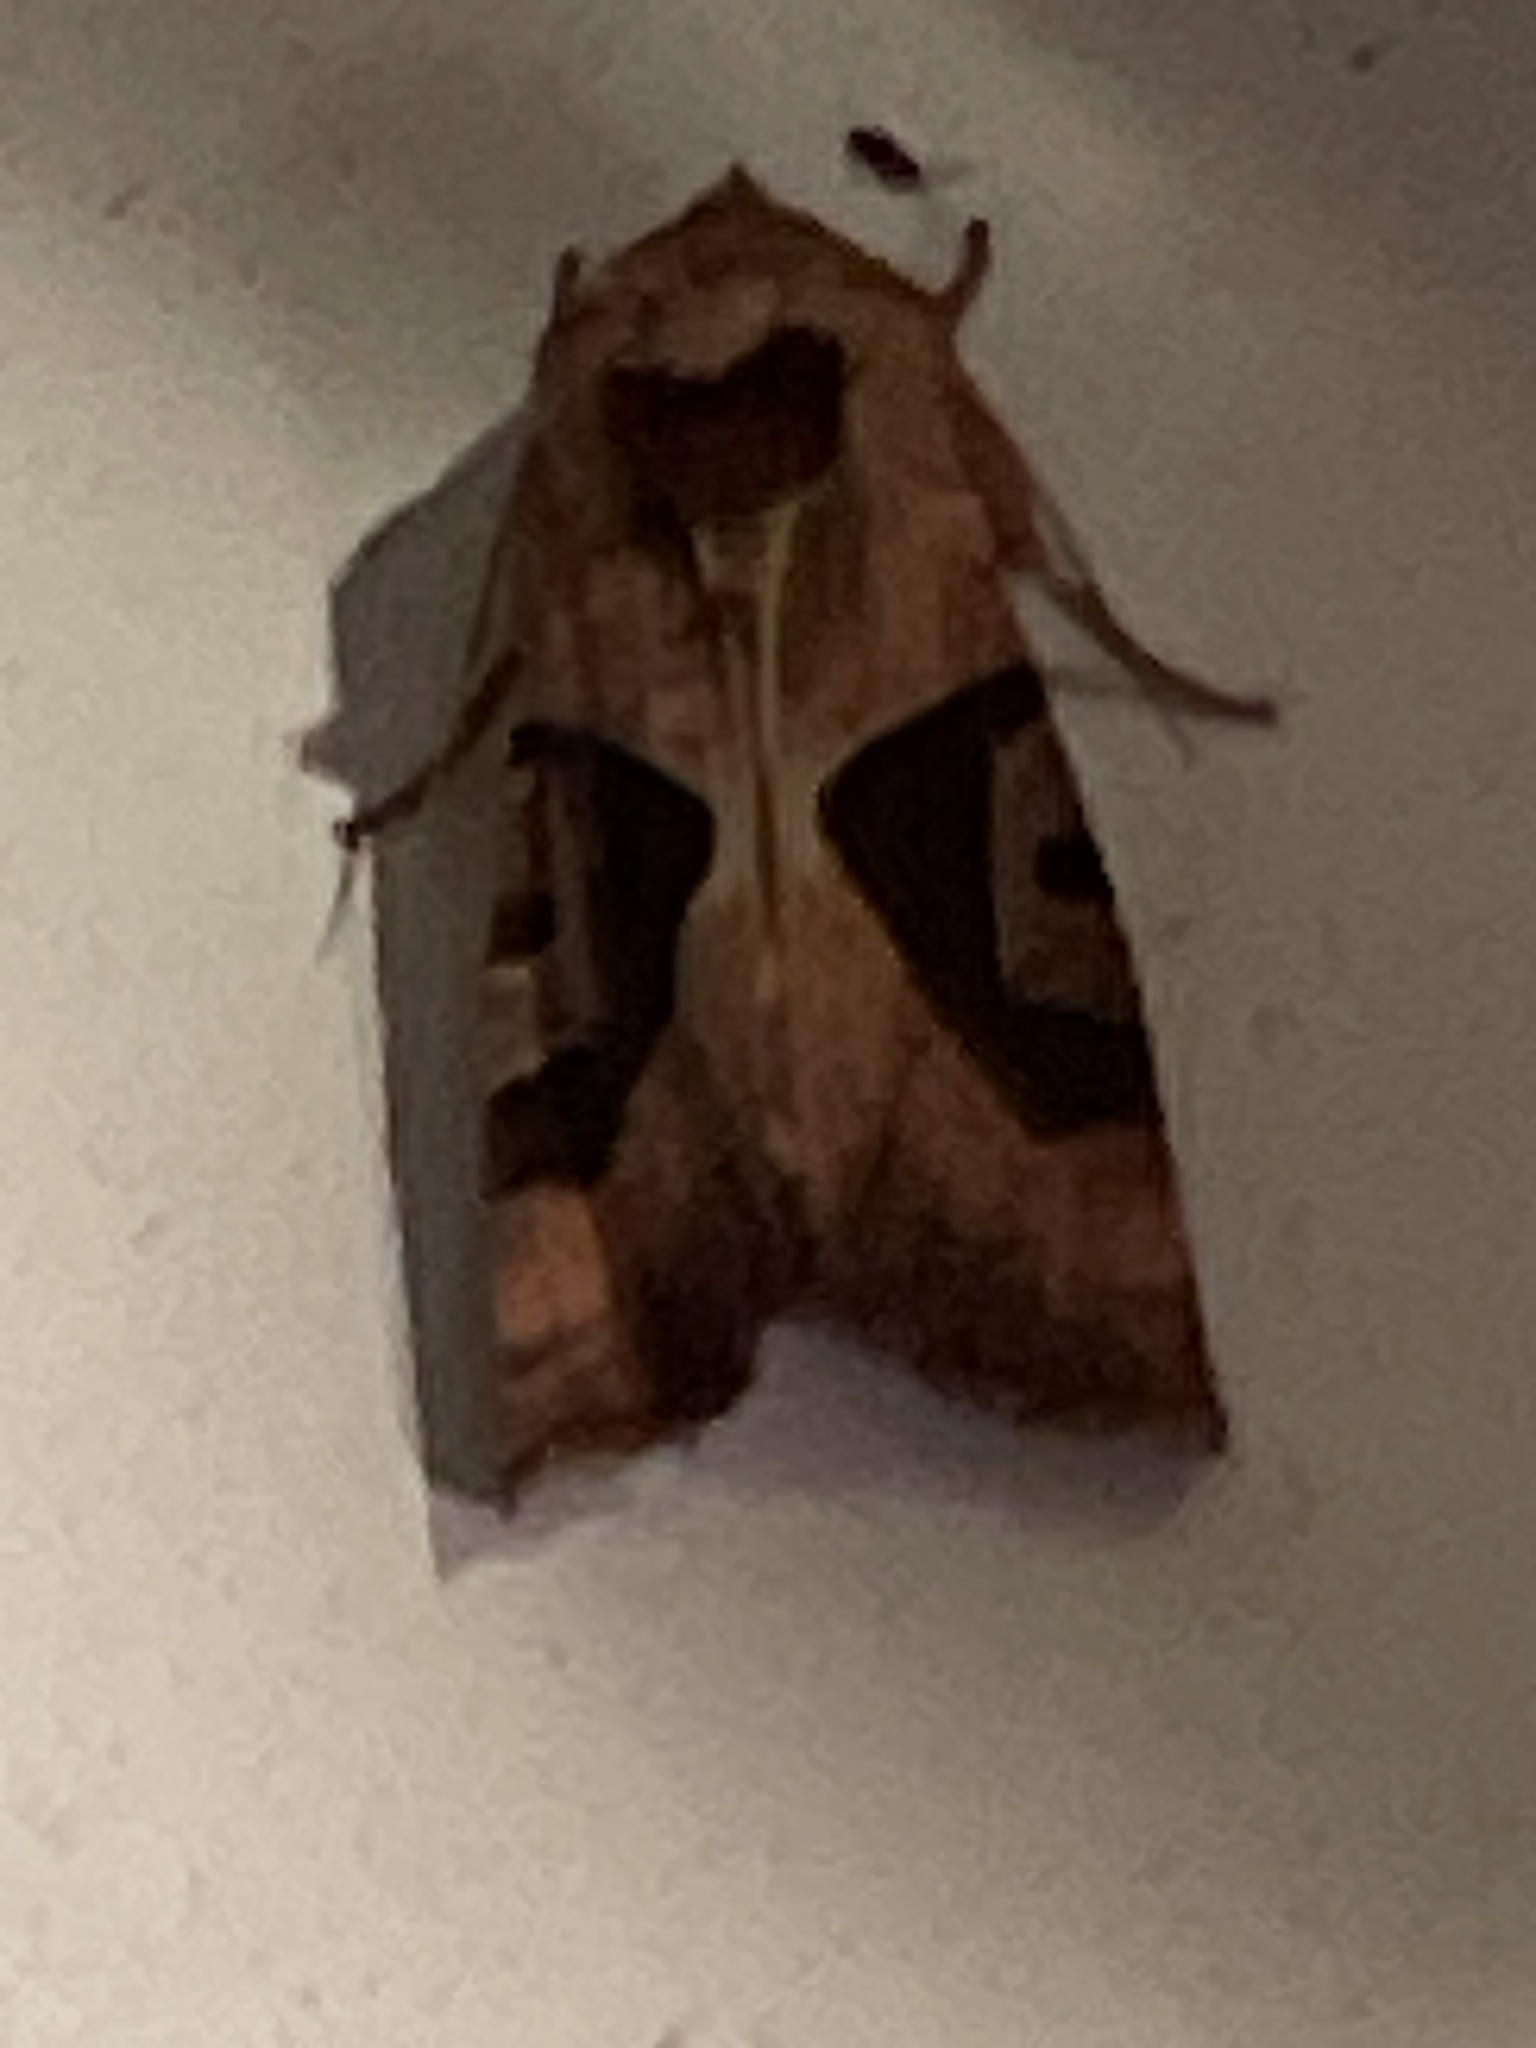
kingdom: Animalia
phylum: Arthropoda
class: Insecta
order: Lepidoptera
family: Noctuidae
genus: Conservula
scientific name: Conservula anodonta
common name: Sharp angle shades
